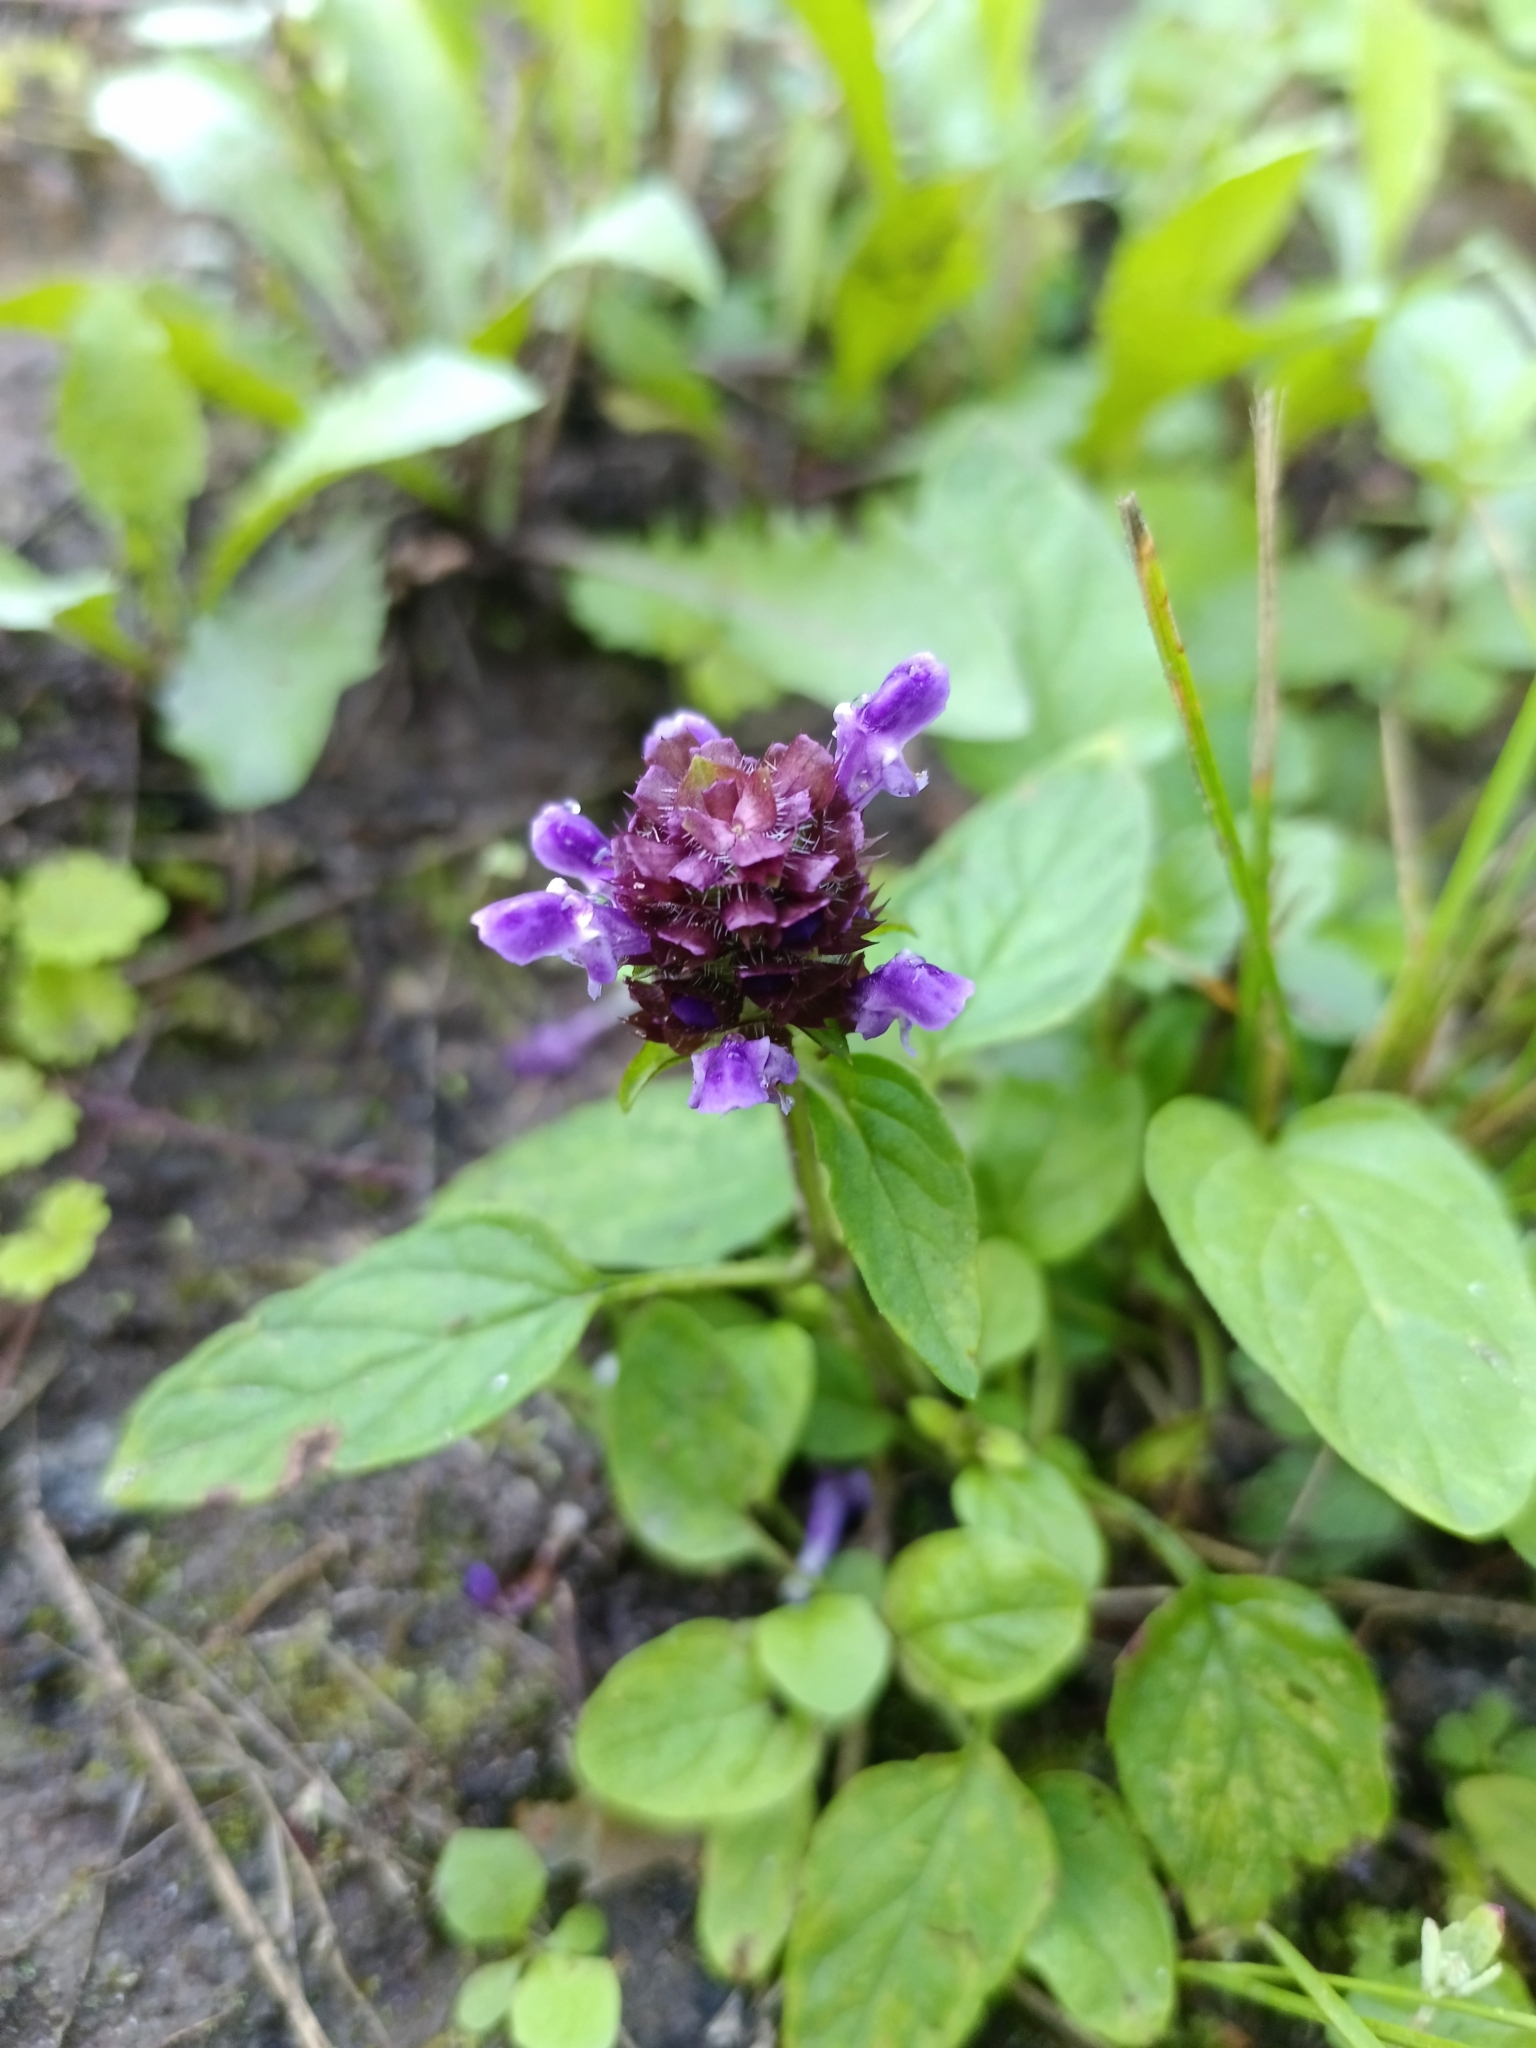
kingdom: Plantae
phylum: Tracheophyta
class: Magnoliopsida
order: Lamiales
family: Lamiaceae
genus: Prunella
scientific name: Prunella vulgaris
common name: Heal-all
